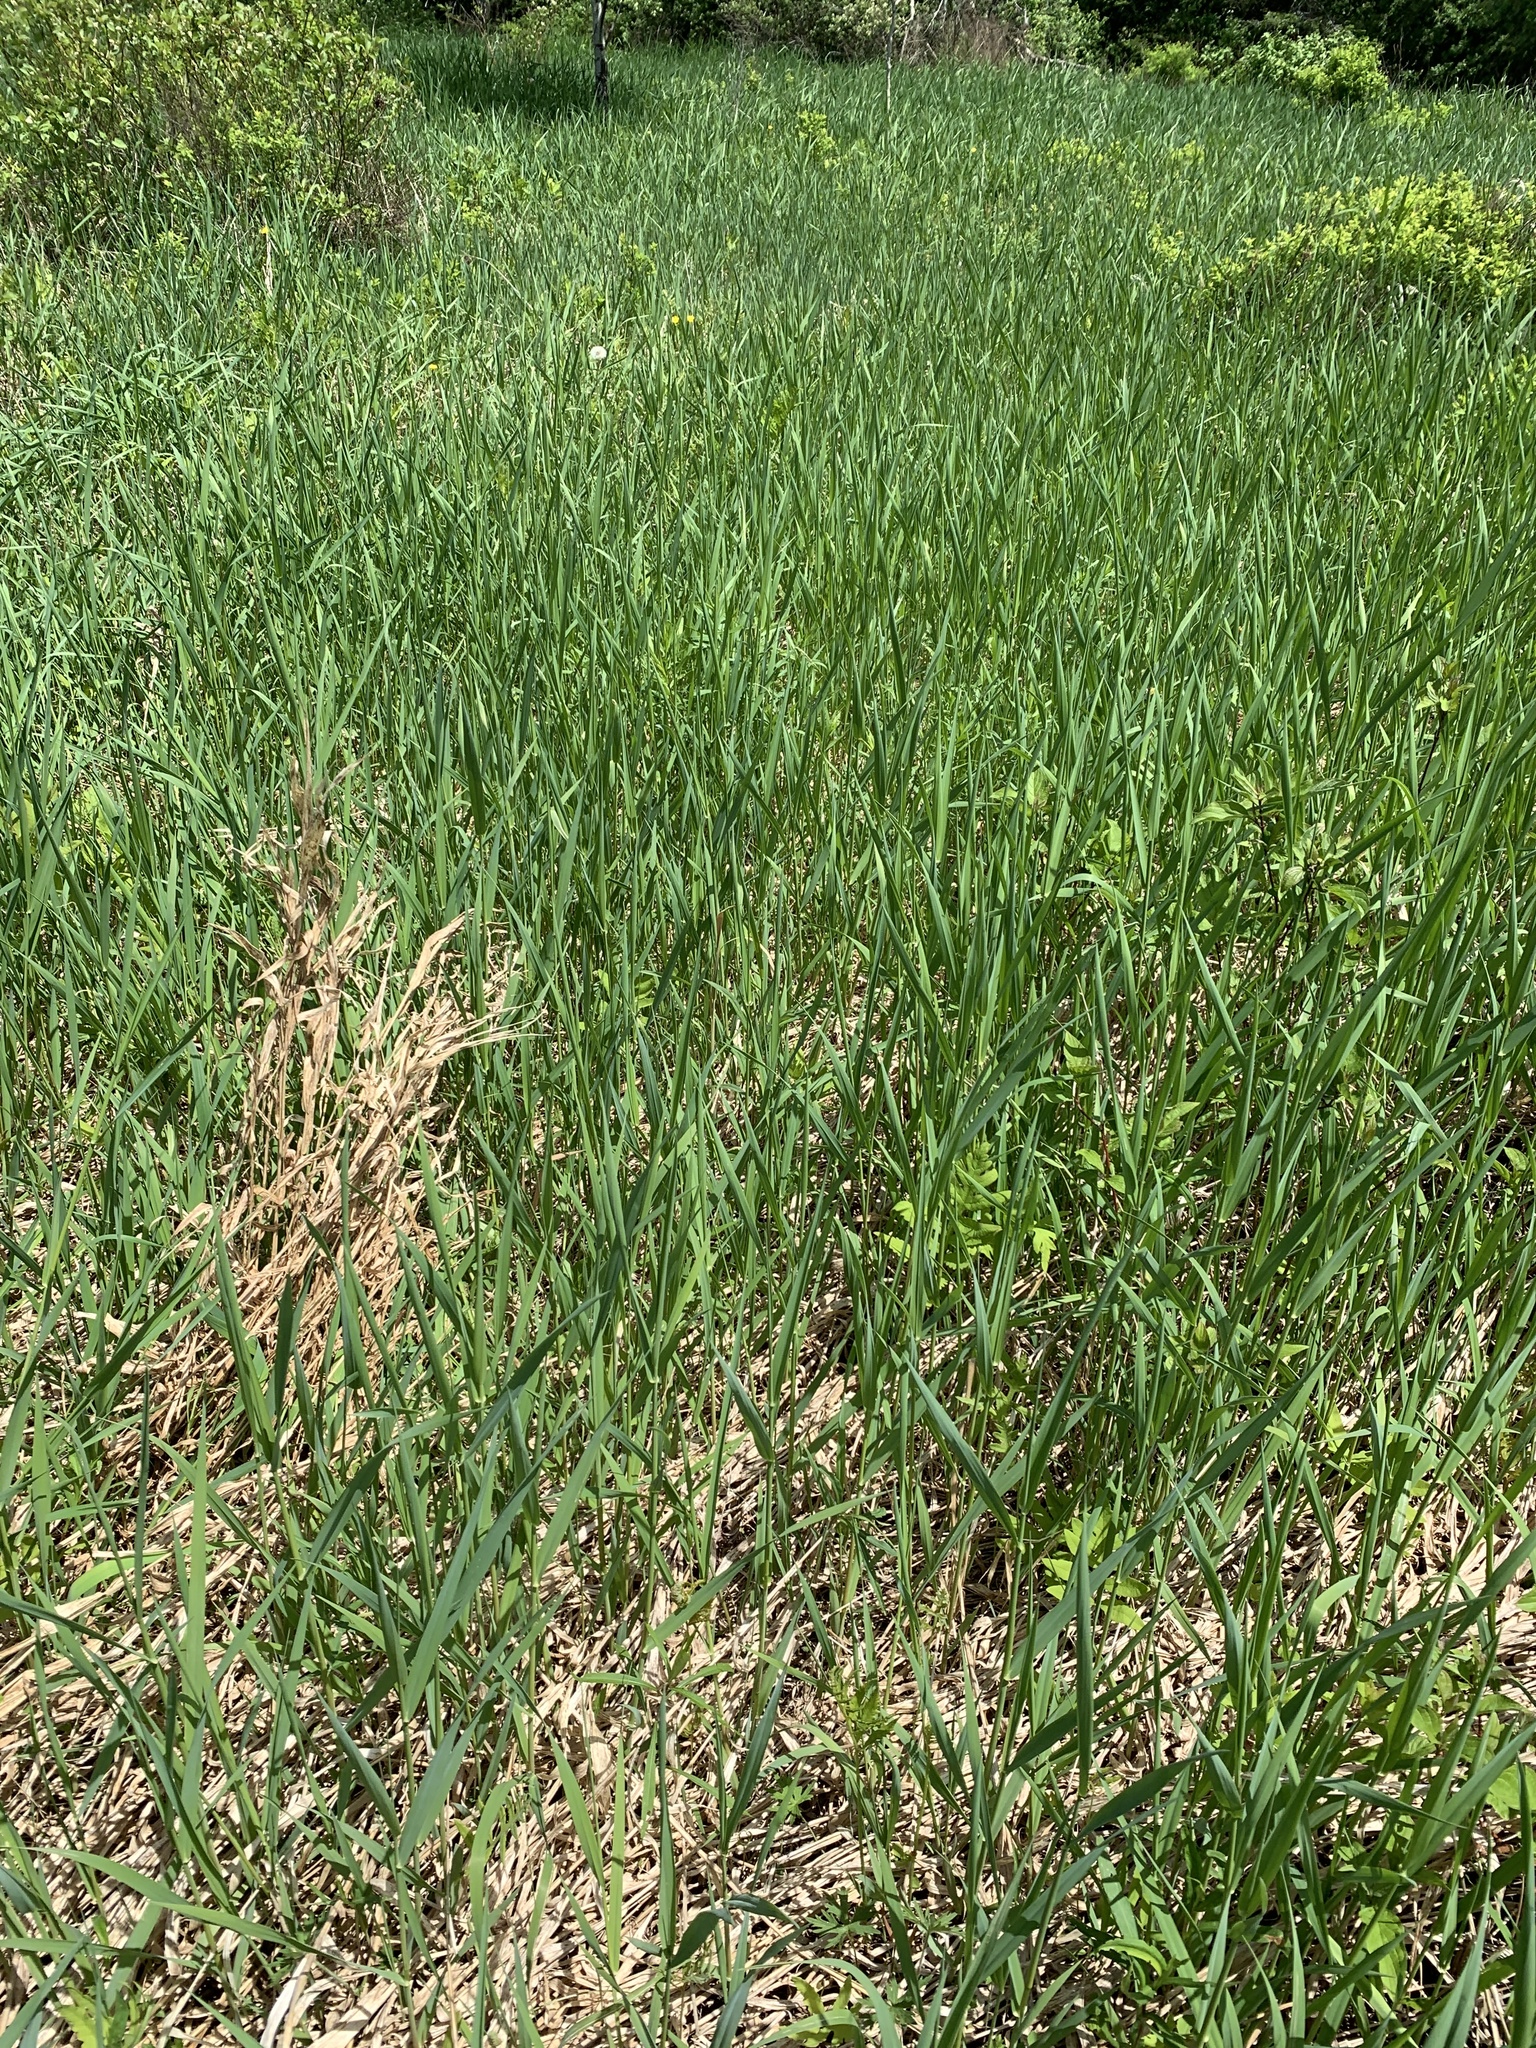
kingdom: Plantae
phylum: Tracheophyta
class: Liliopsida
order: Poales
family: Poaceae
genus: Phalaris
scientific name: Phalaris arundinacea
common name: Reed canary-grass
